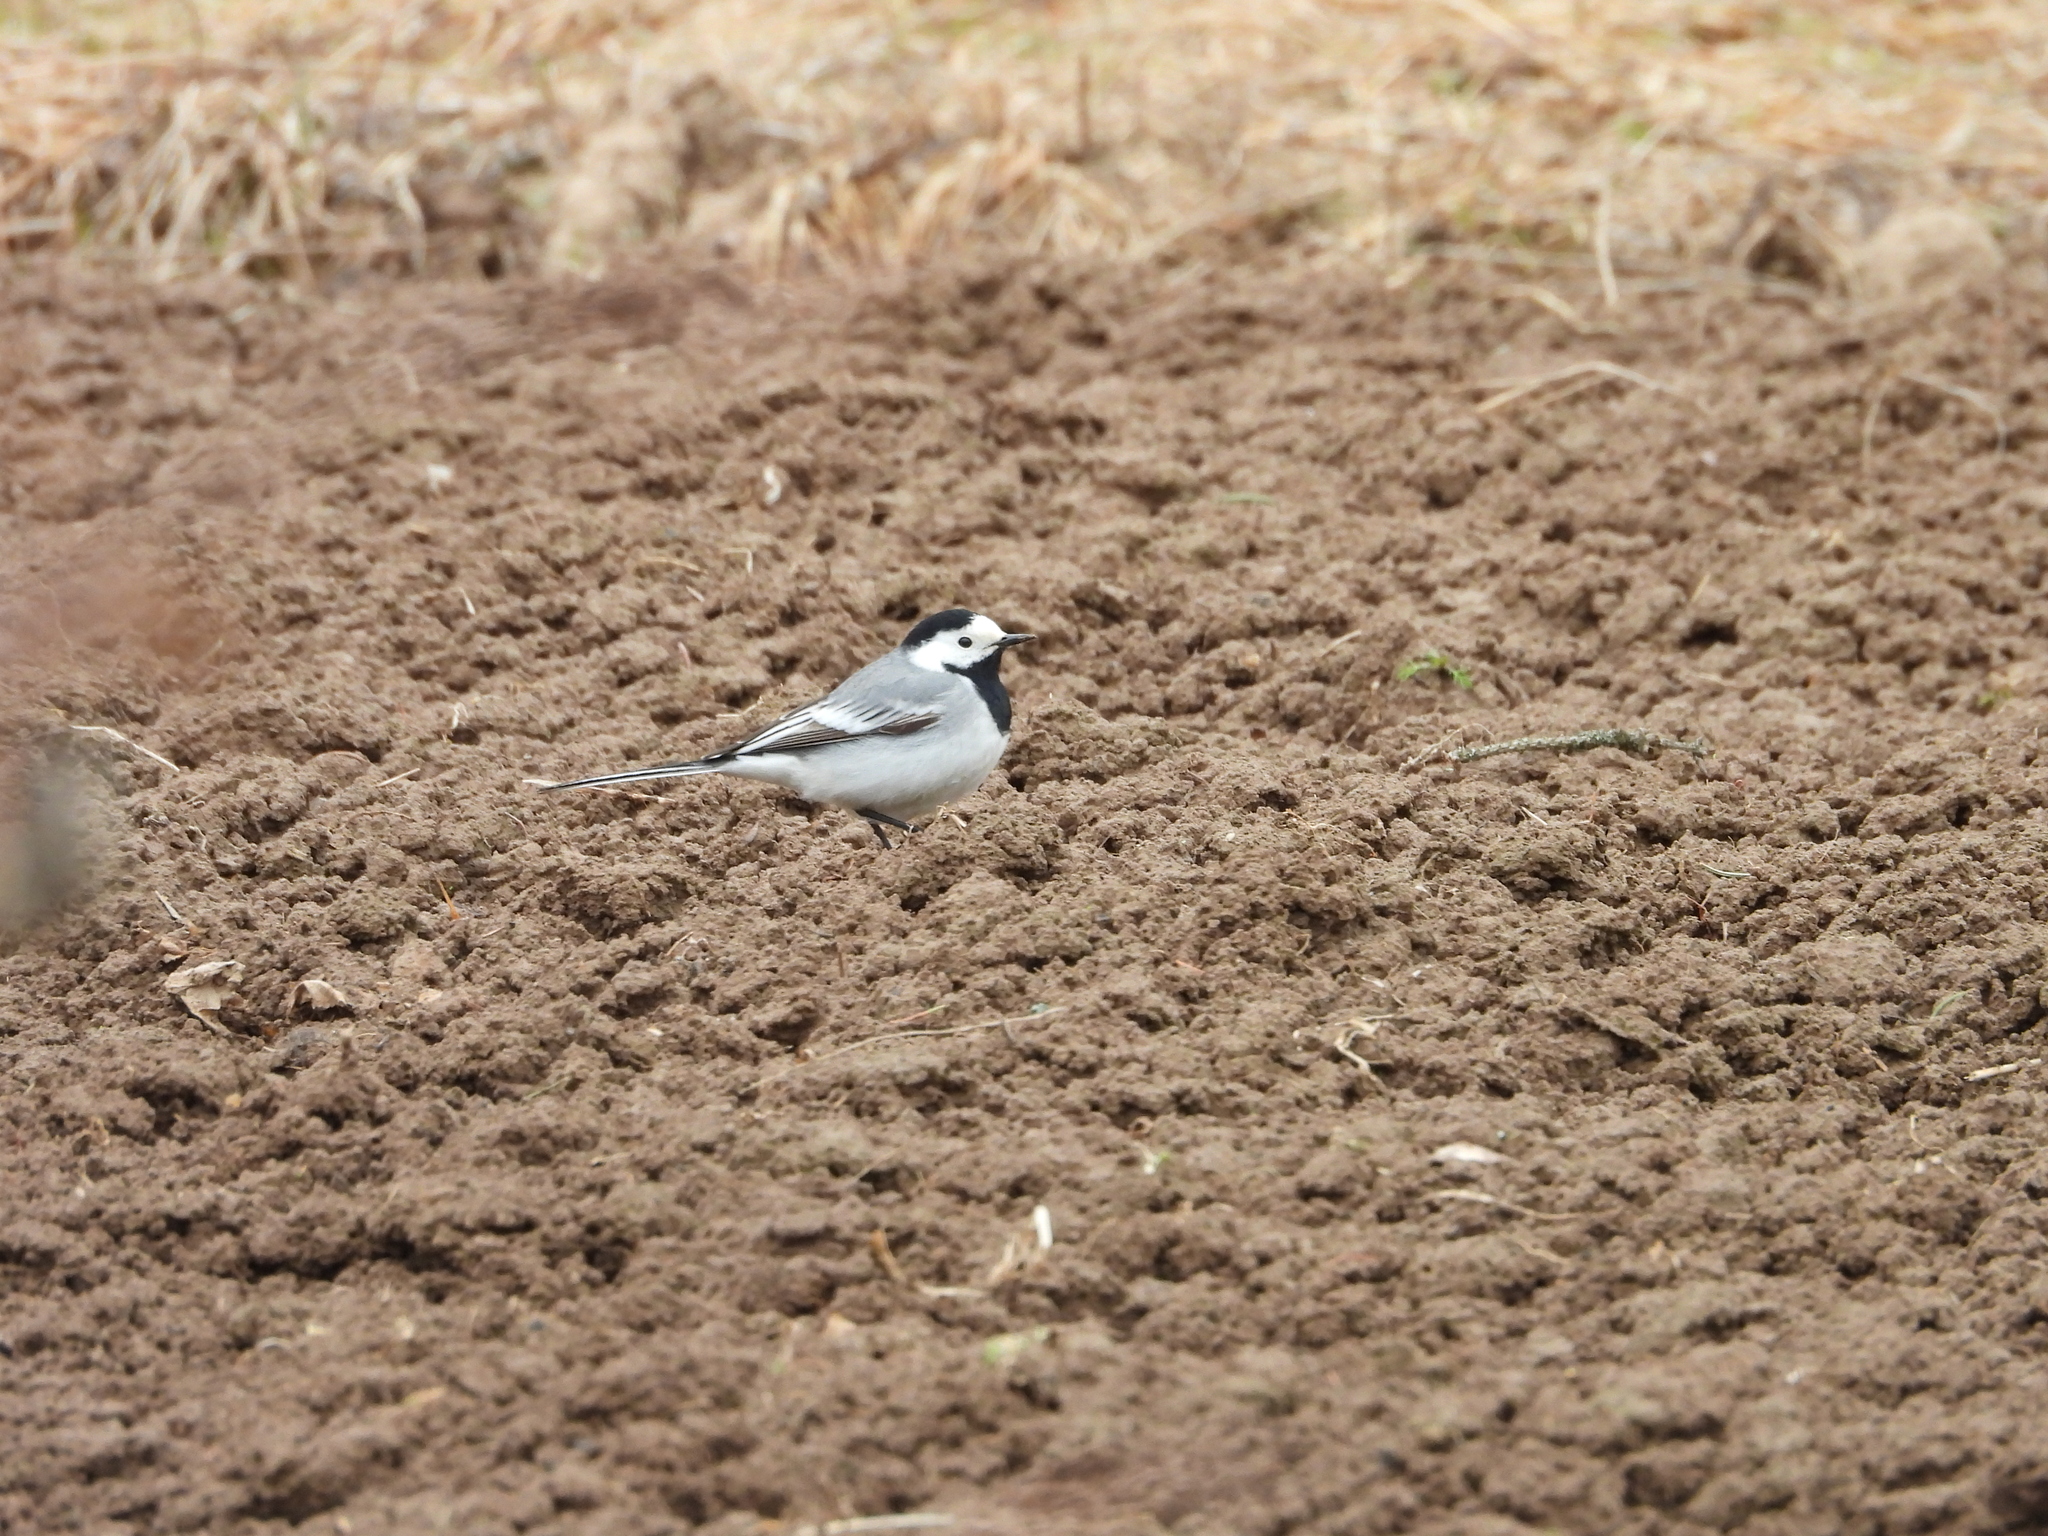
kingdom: Animalia
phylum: Chordata
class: Aves
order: Passeriformes
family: Motacillidae
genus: Motacilla
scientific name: Motacilla alba
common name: White wagtail
